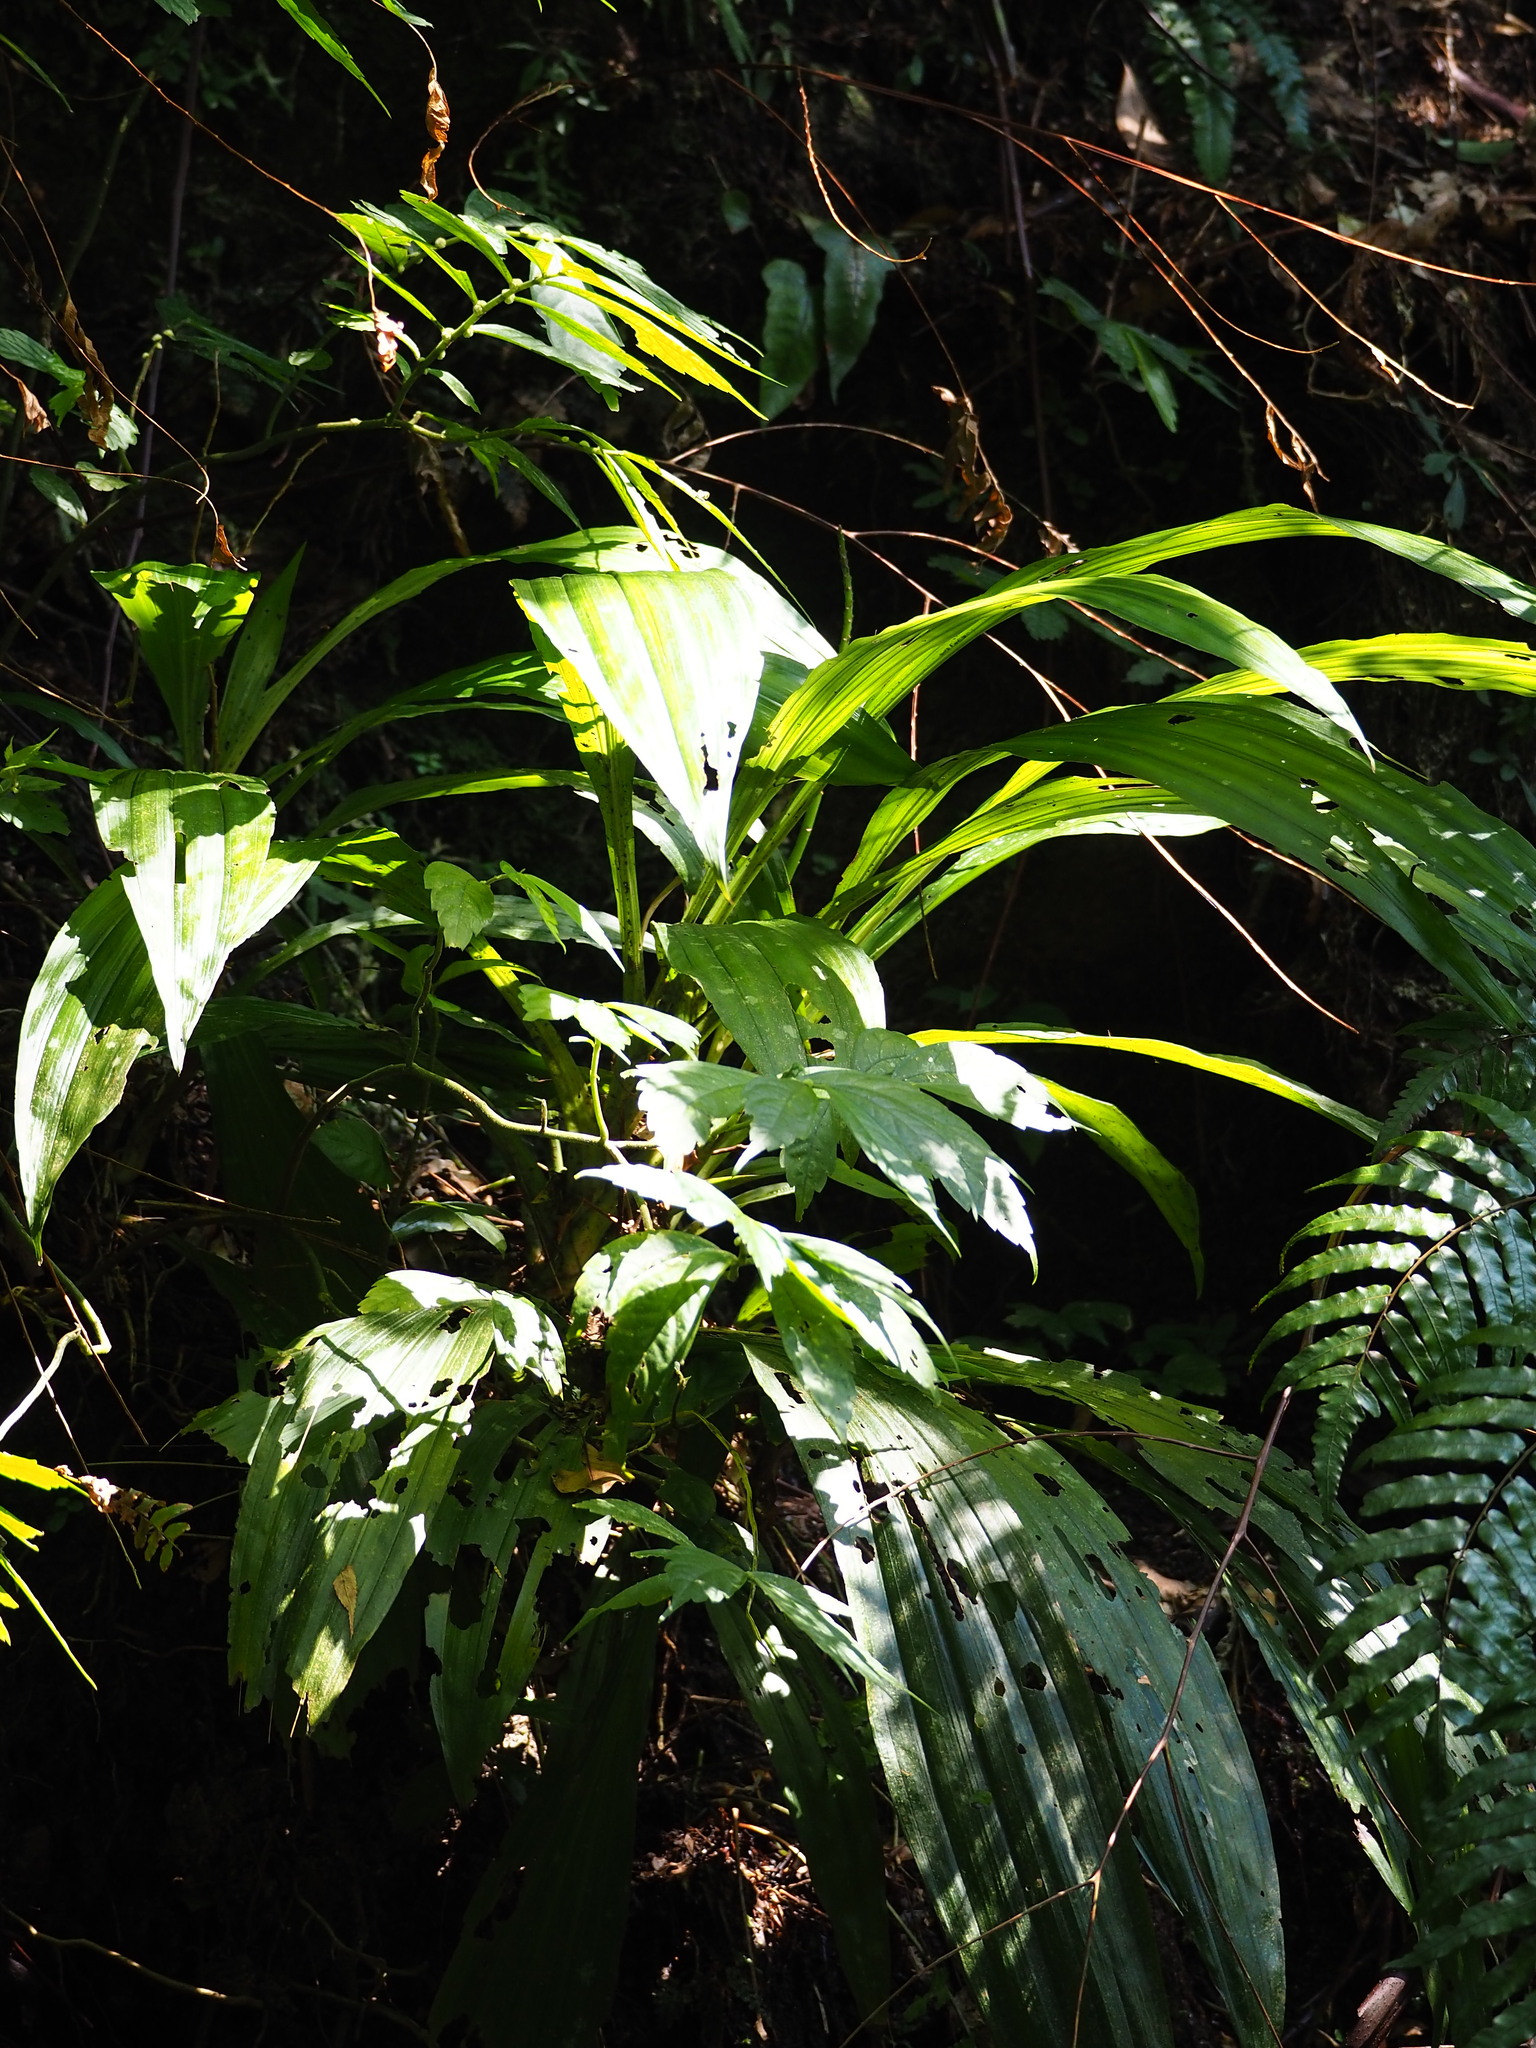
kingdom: Plantae
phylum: Tracheophyta
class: Liliopsida
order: Asparagales
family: Orchidaceae
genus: Calanthe
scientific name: Calanthe formosana
